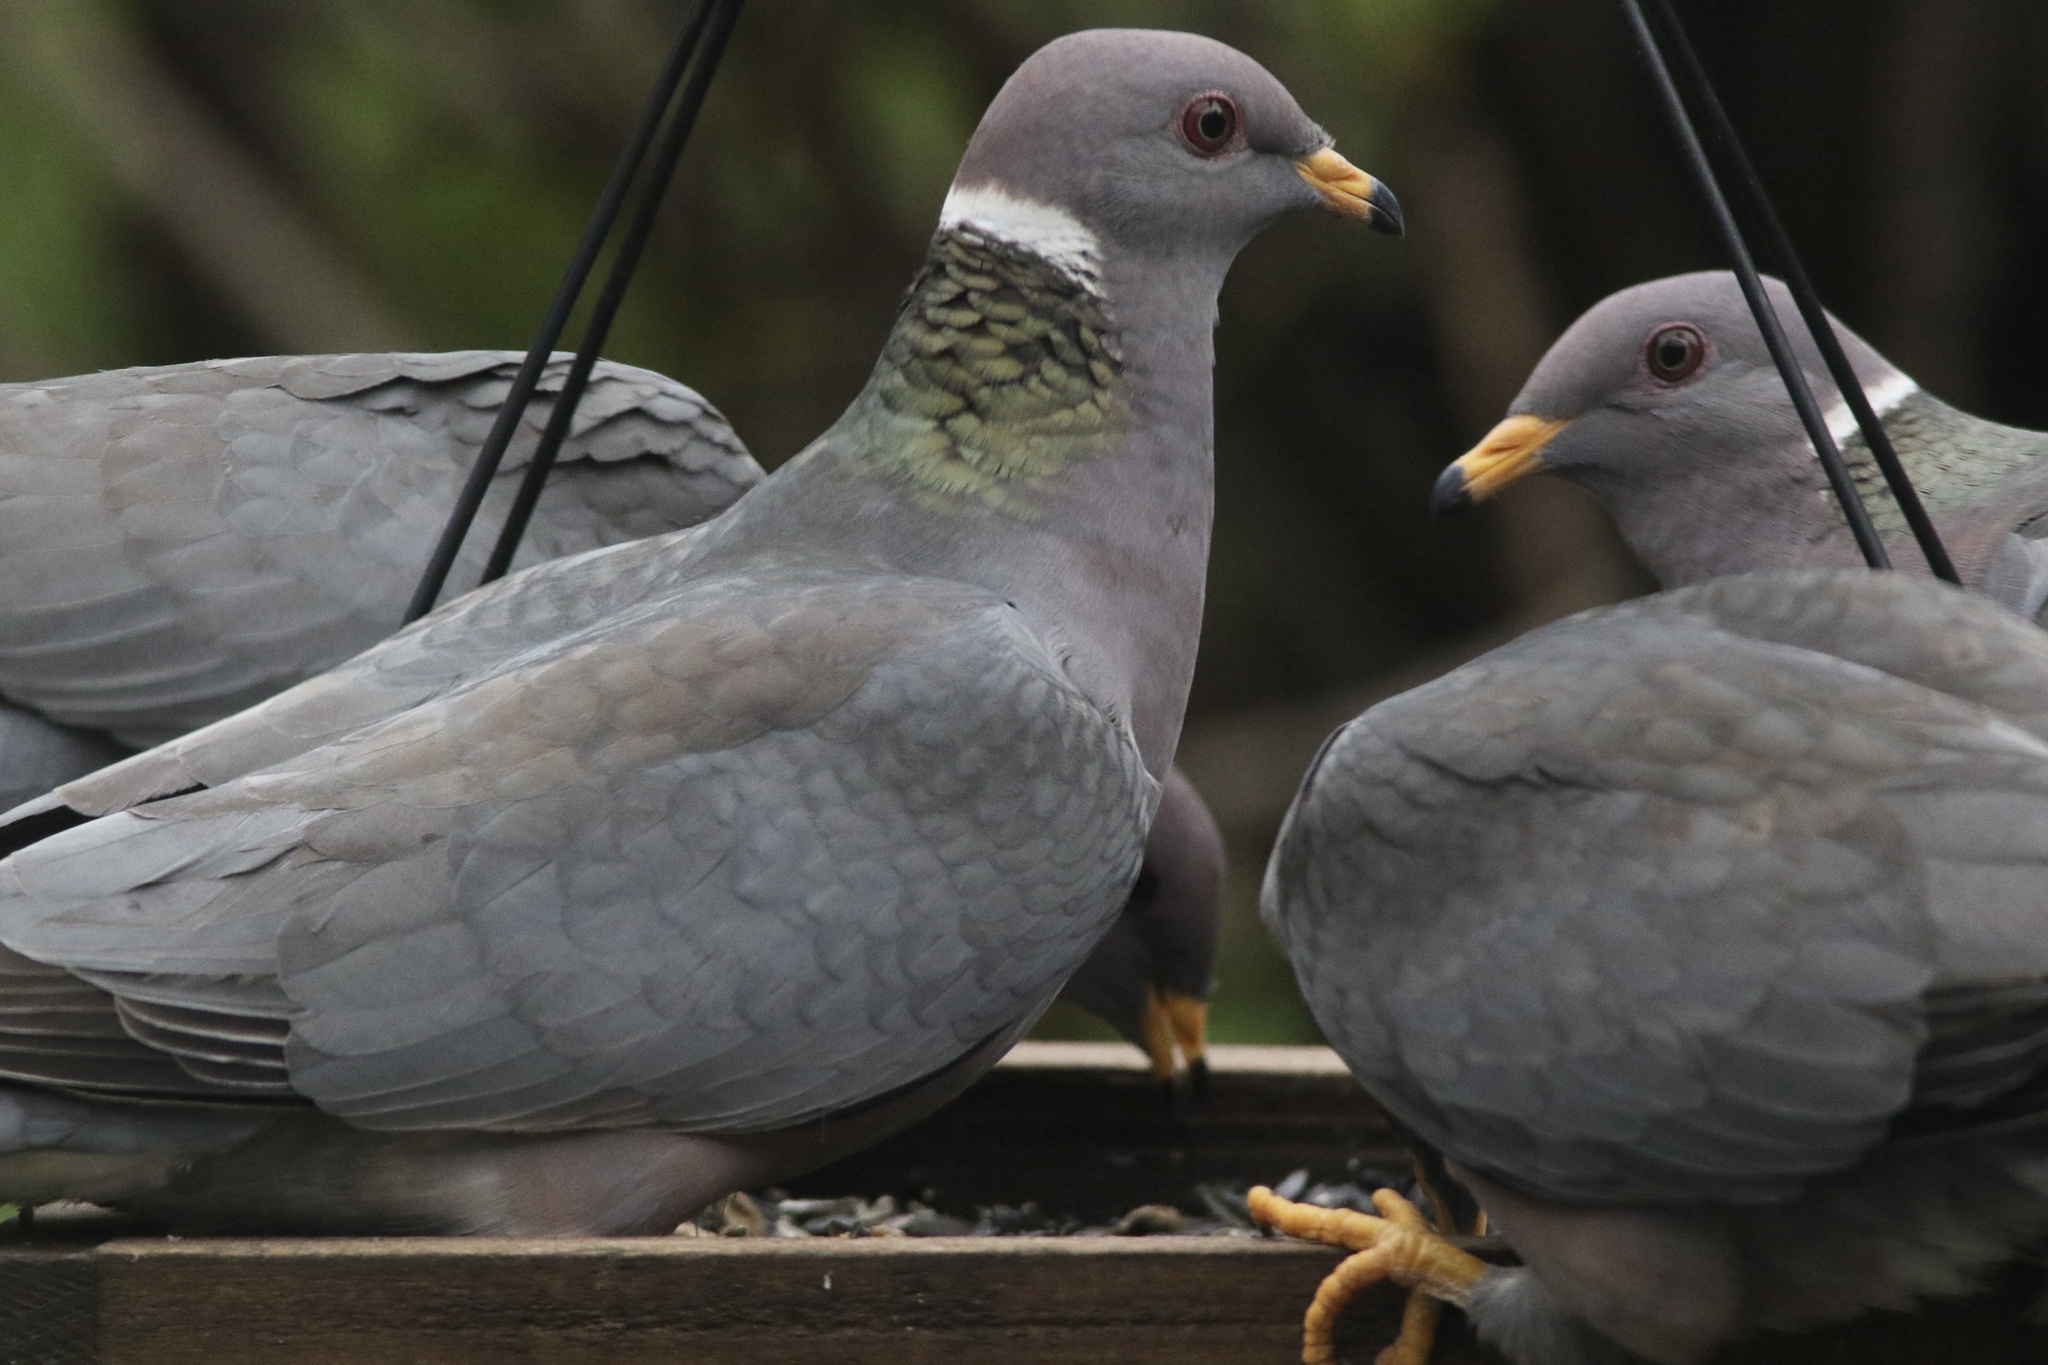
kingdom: Animalia
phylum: Chordata
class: Aves
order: Columbiformes
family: Columbidae
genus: Patagioenas
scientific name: Patagioenas fasciata
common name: Band-tailed pigeon
